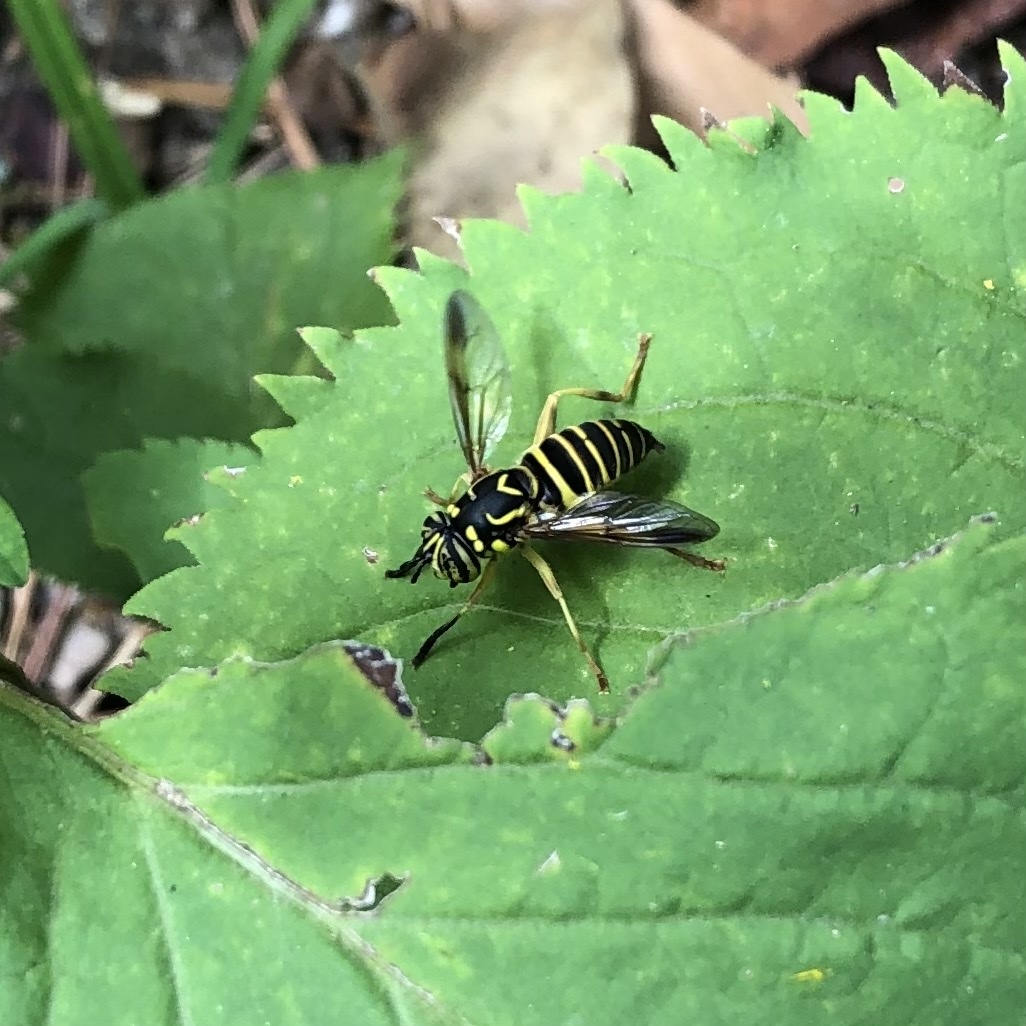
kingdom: Animalia
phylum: Arthropoda
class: Insecta
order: Diptera
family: Syrphidae
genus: Spilomyia
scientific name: Spilomyia longicornis
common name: Eastern hornet fly
